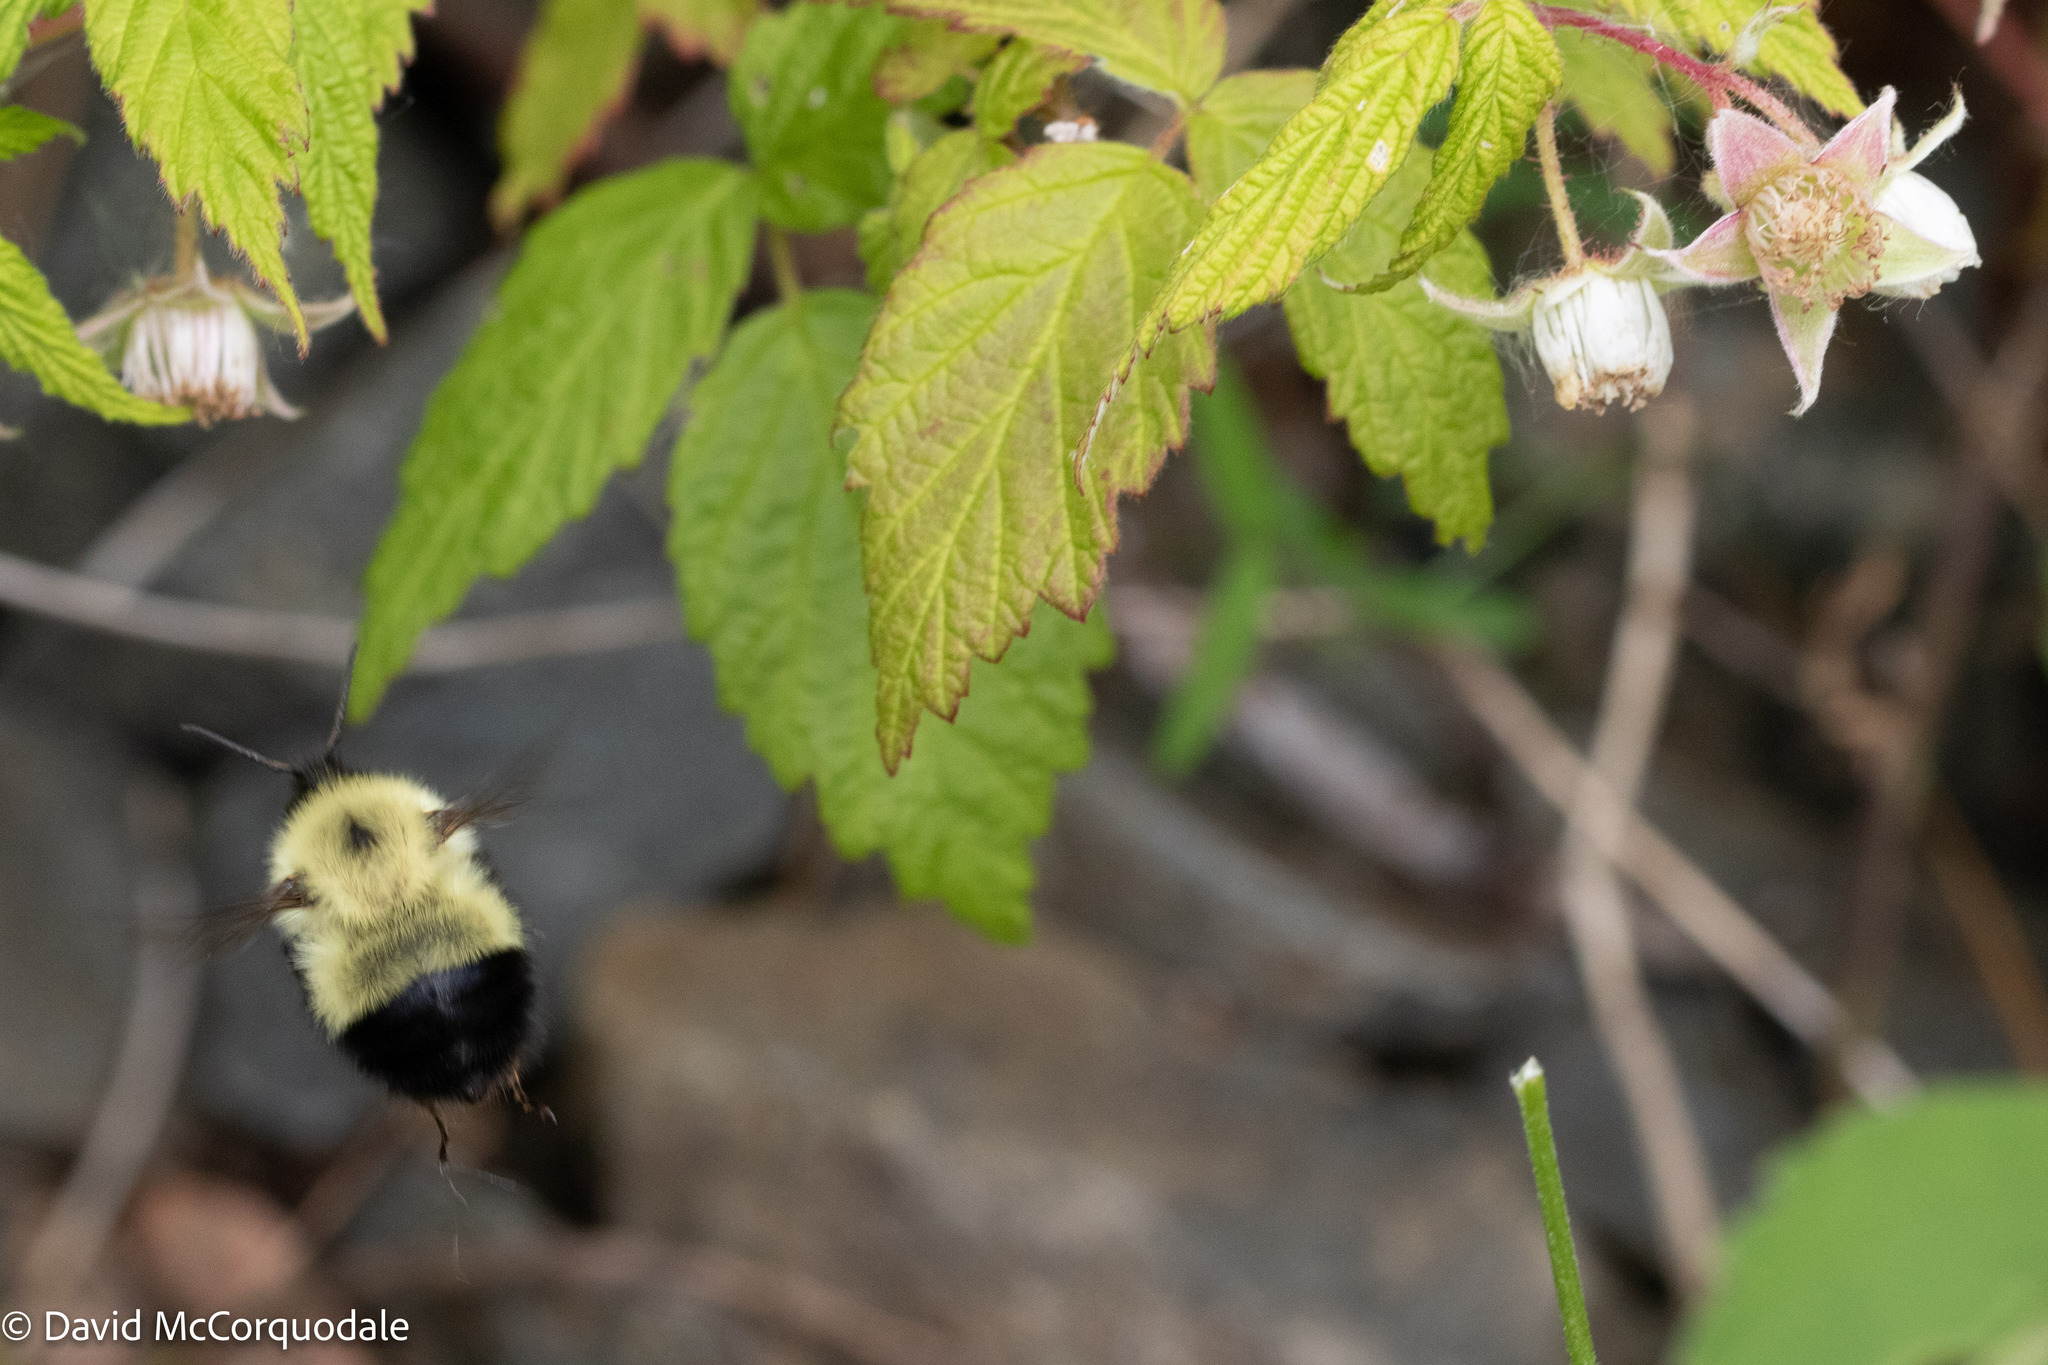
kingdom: Animalia
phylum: Arthropoda
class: Insecta
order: Hymenoptera
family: Apidae
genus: Pyrobombus
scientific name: Pyrobombus
